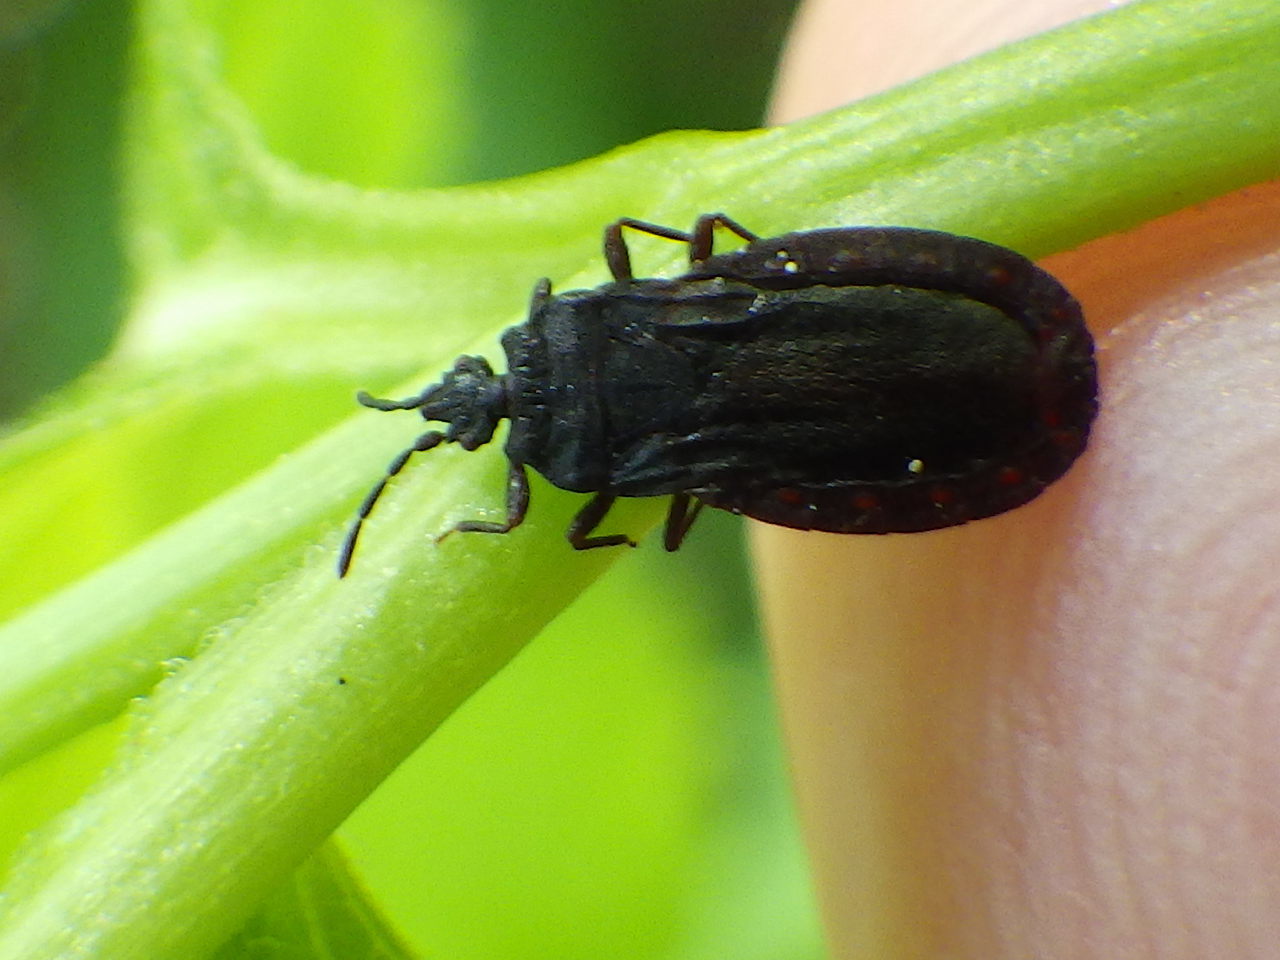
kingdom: Animalia
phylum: Arthropoda
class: Insecta
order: Hemiptera
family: Aradidae
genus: Aneurus
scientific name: Aneurus inconstans
